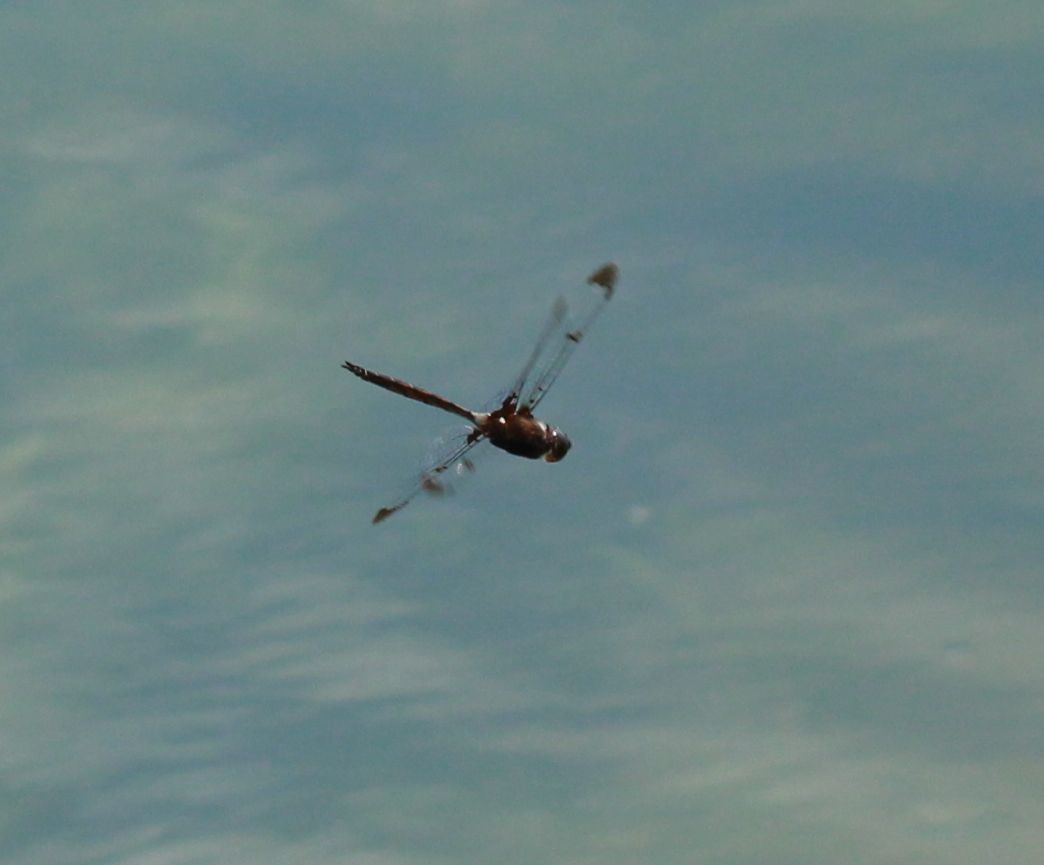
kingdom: Animalia
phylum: Arthropoda
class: Insecta
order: Odonata
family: Corduliidae
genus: Epitheca
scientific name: Epitheca princeps
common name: Prince baskettail
